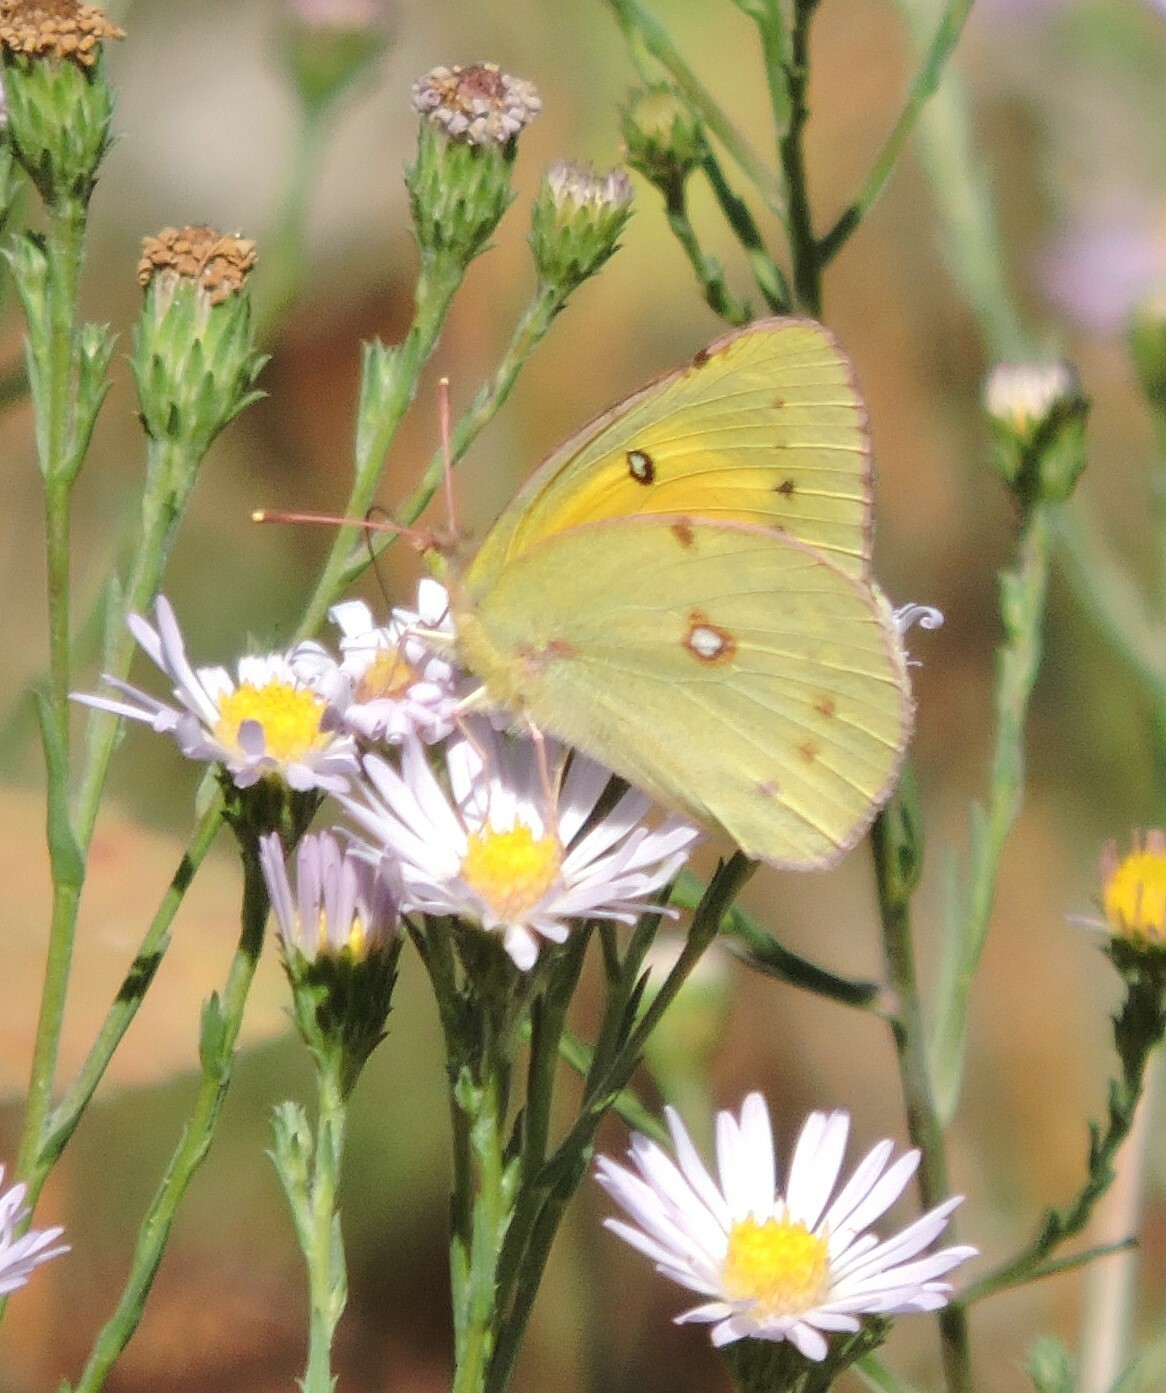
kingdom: Animalia
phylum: Arthropoda
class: Insecta
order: Lepidoptera
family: Pieridae
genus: Colias
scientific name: Colias eurytheme
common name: Alfalfa butterfly
